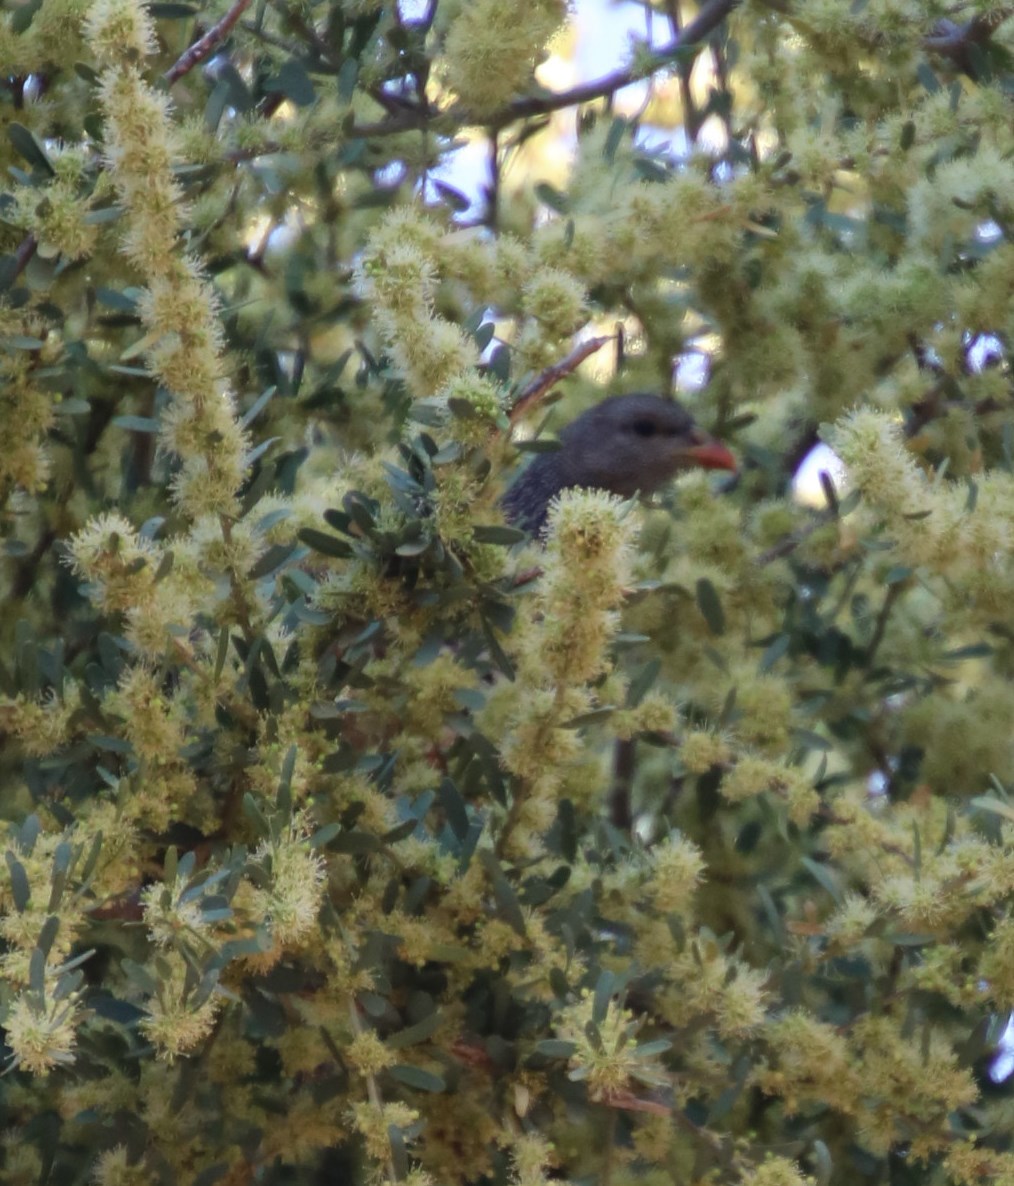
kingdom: Plantae
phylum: Tracheophyta
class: Magnoliopsida
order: Brassicales
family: Capparaceae
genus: Boscia
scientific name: Boscia albitrunca
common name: Caper bush
